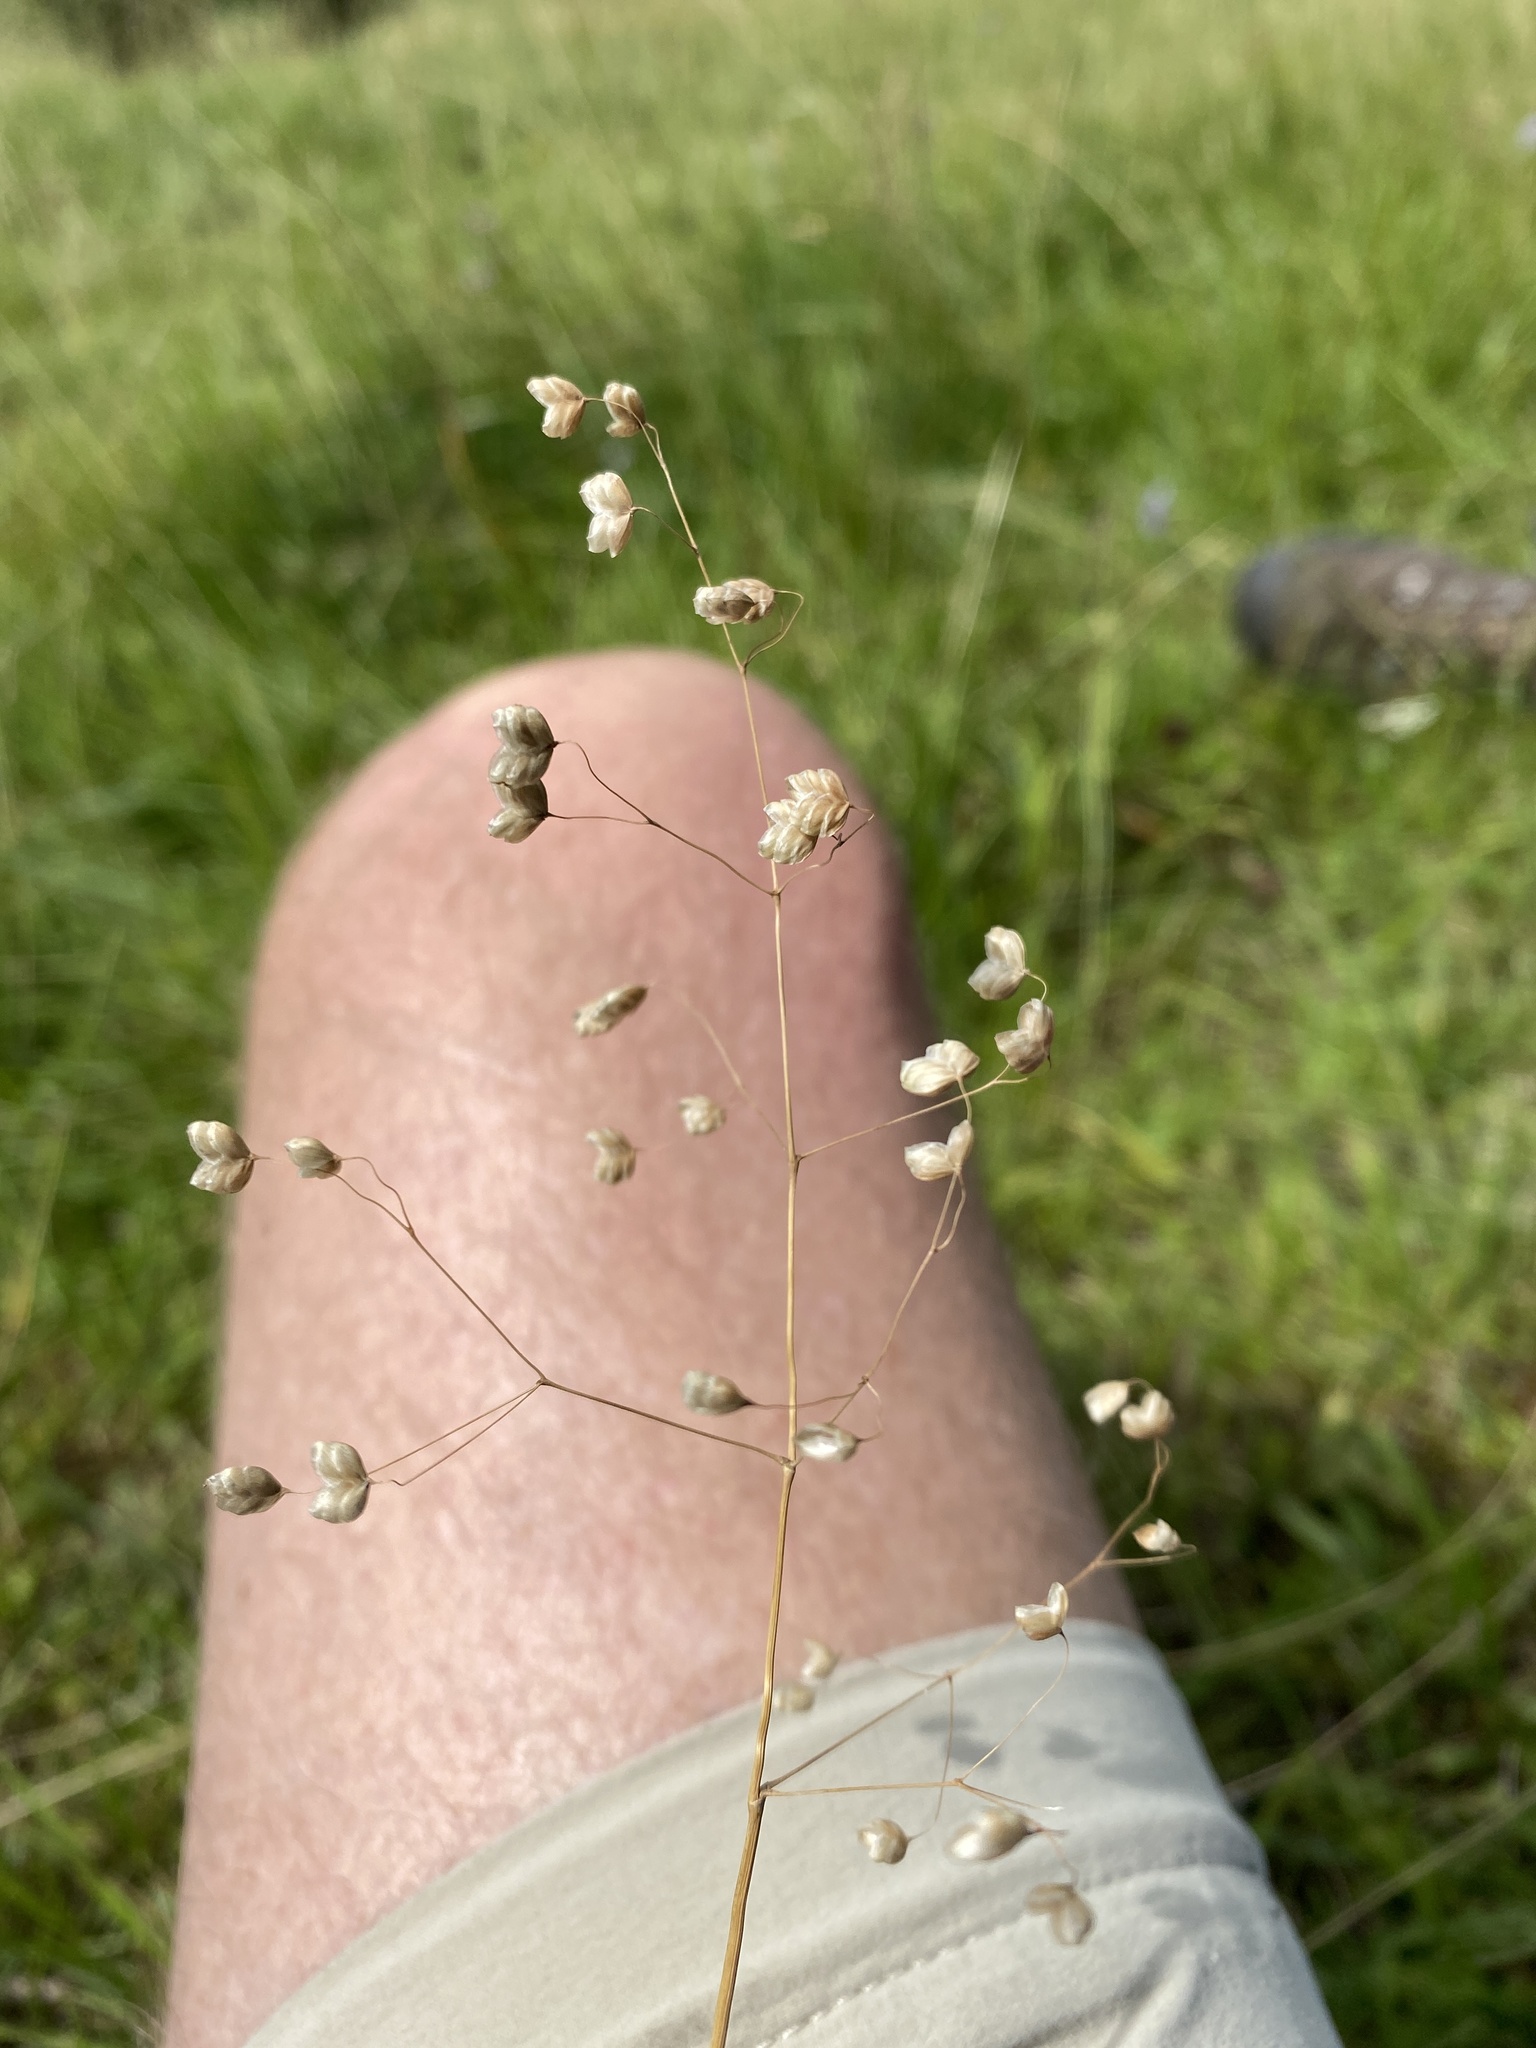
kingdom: Plantae
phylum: Tracheophyta
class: Liliopsida
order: Poales
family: Poaceae
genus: Briza
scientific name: Briza media
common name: Quaking grass
